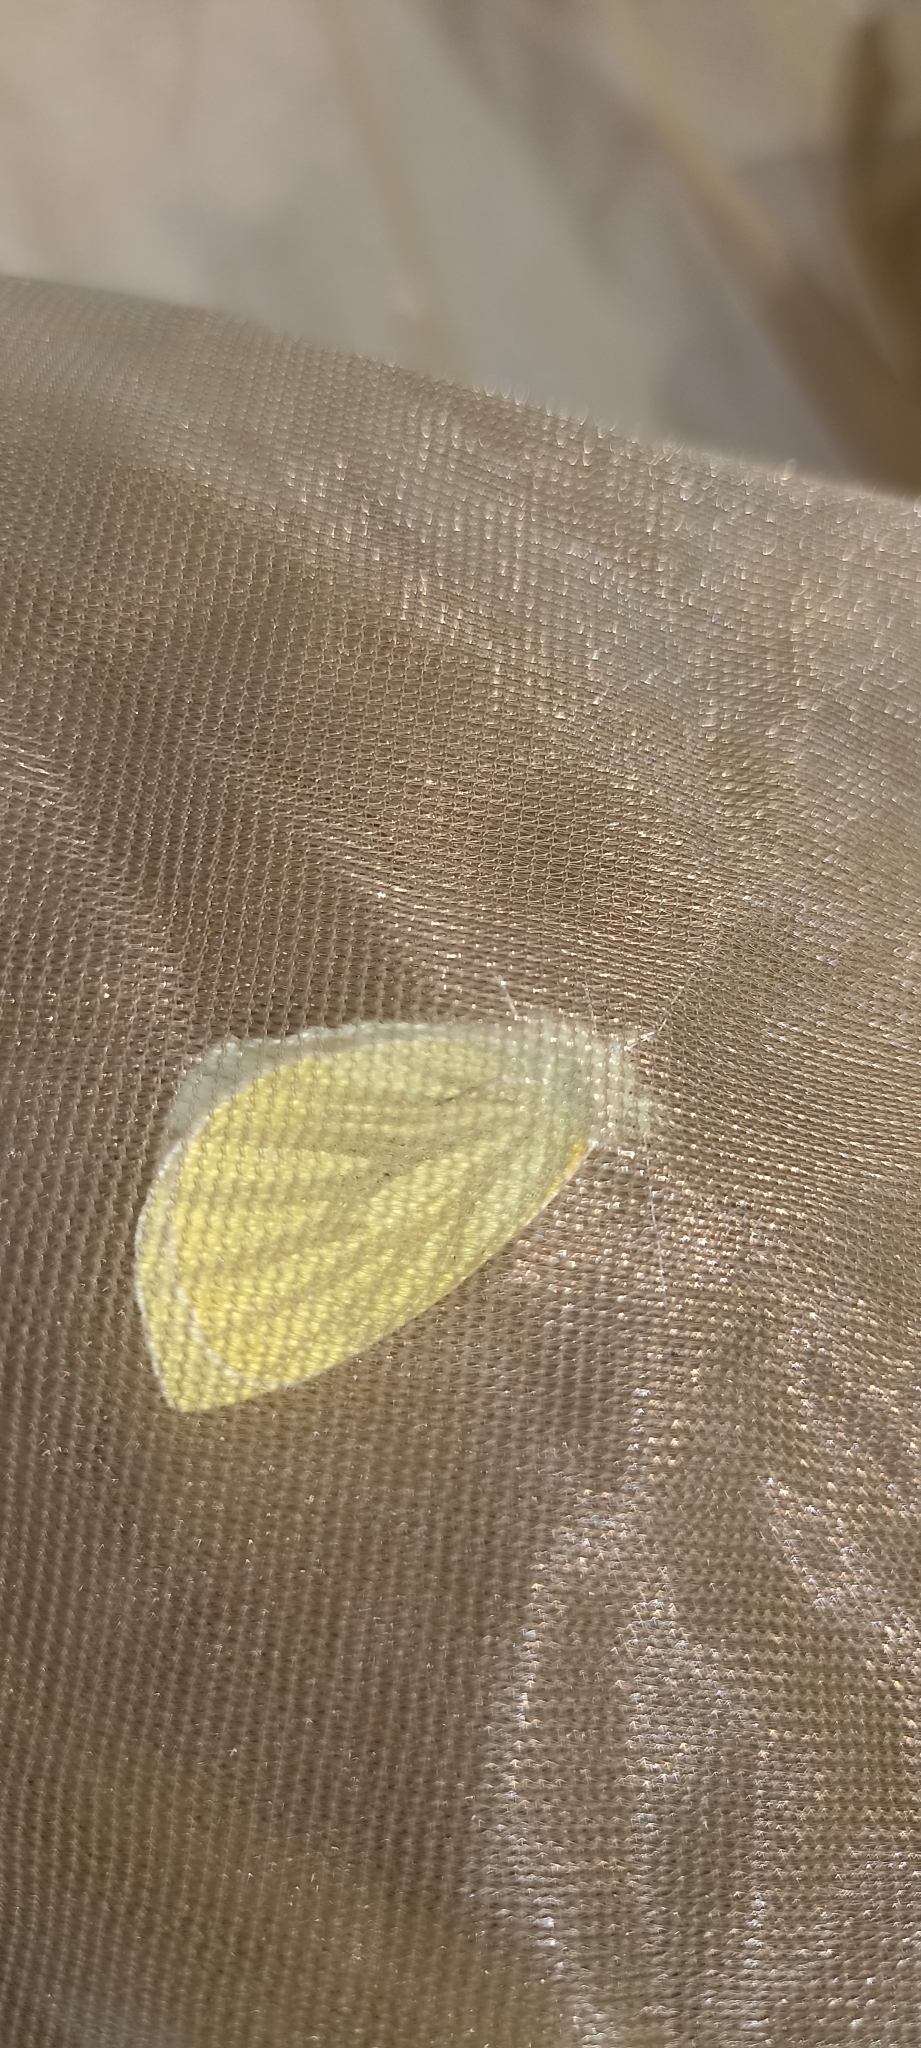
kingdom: Animalia
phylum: Arthropoda
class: Insecta
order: Lepidoptera
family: Pieridae
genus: Pieris
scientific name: Pieris napi
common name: Green-veined white
